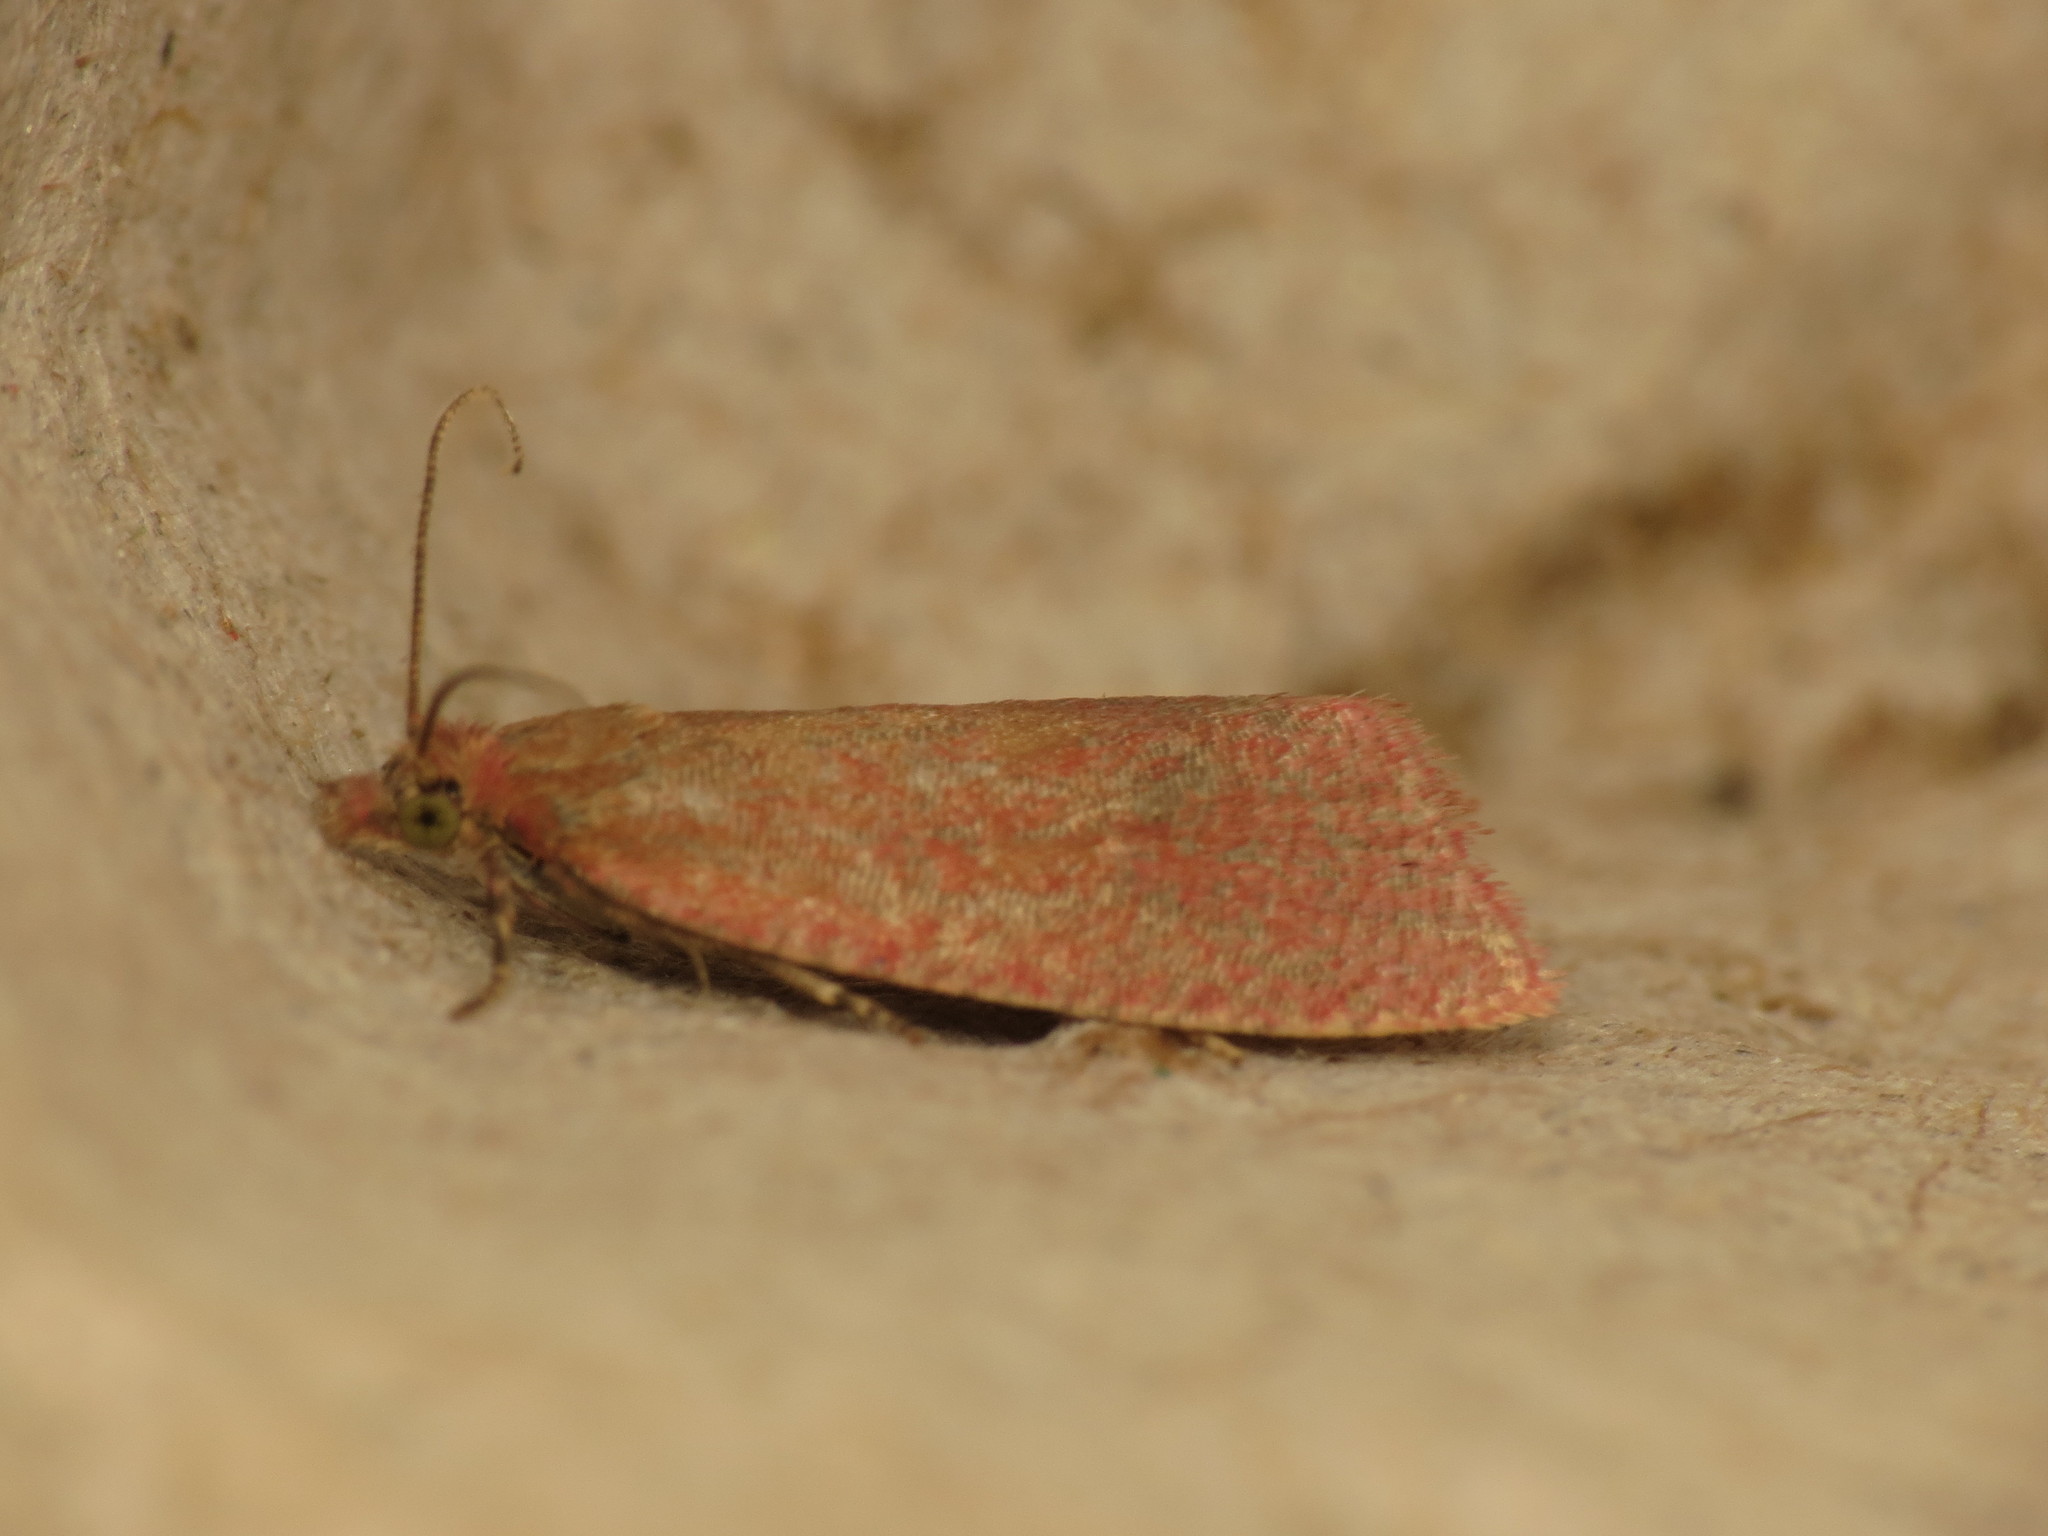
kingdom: Animalia
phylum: Arthropoda
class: Insecta
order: Lepidoptera
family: Tortricidae
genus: Celypha
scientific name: Celypha rufana
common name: Lakes marble
